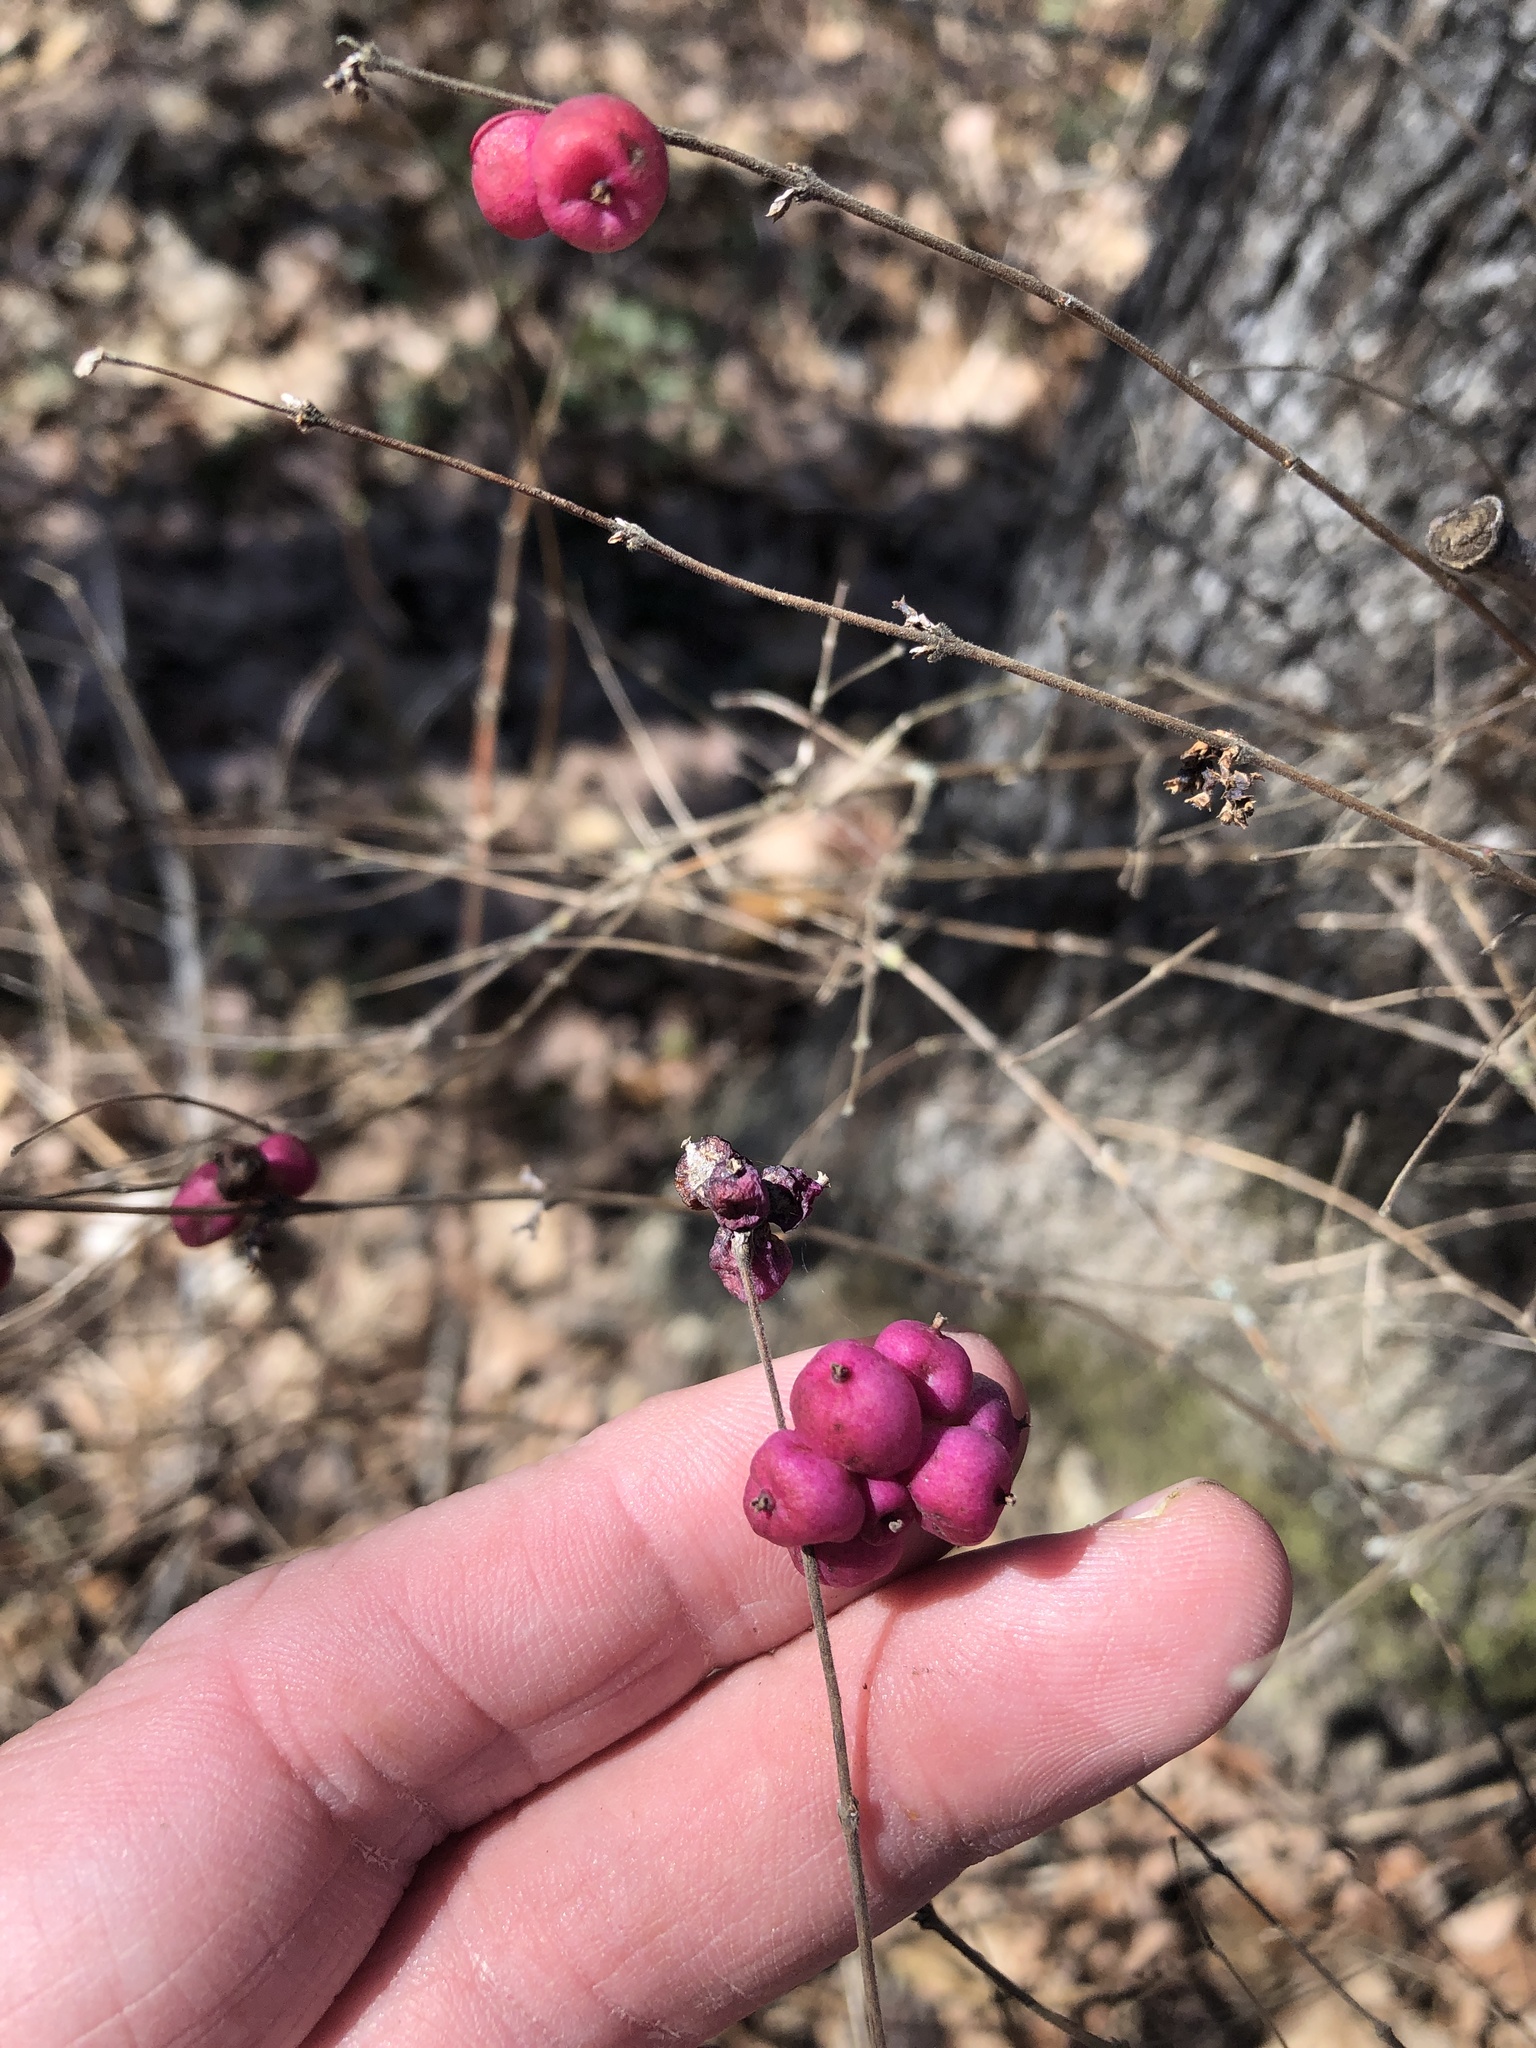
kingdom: Plantae
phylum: Tracheophyta
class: Magnoliopsida
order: Dipsacales
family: Caprifoliaceae
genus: Symphoricarpos
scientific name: Symphoricarpos orbiculatus
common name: Coralberry
